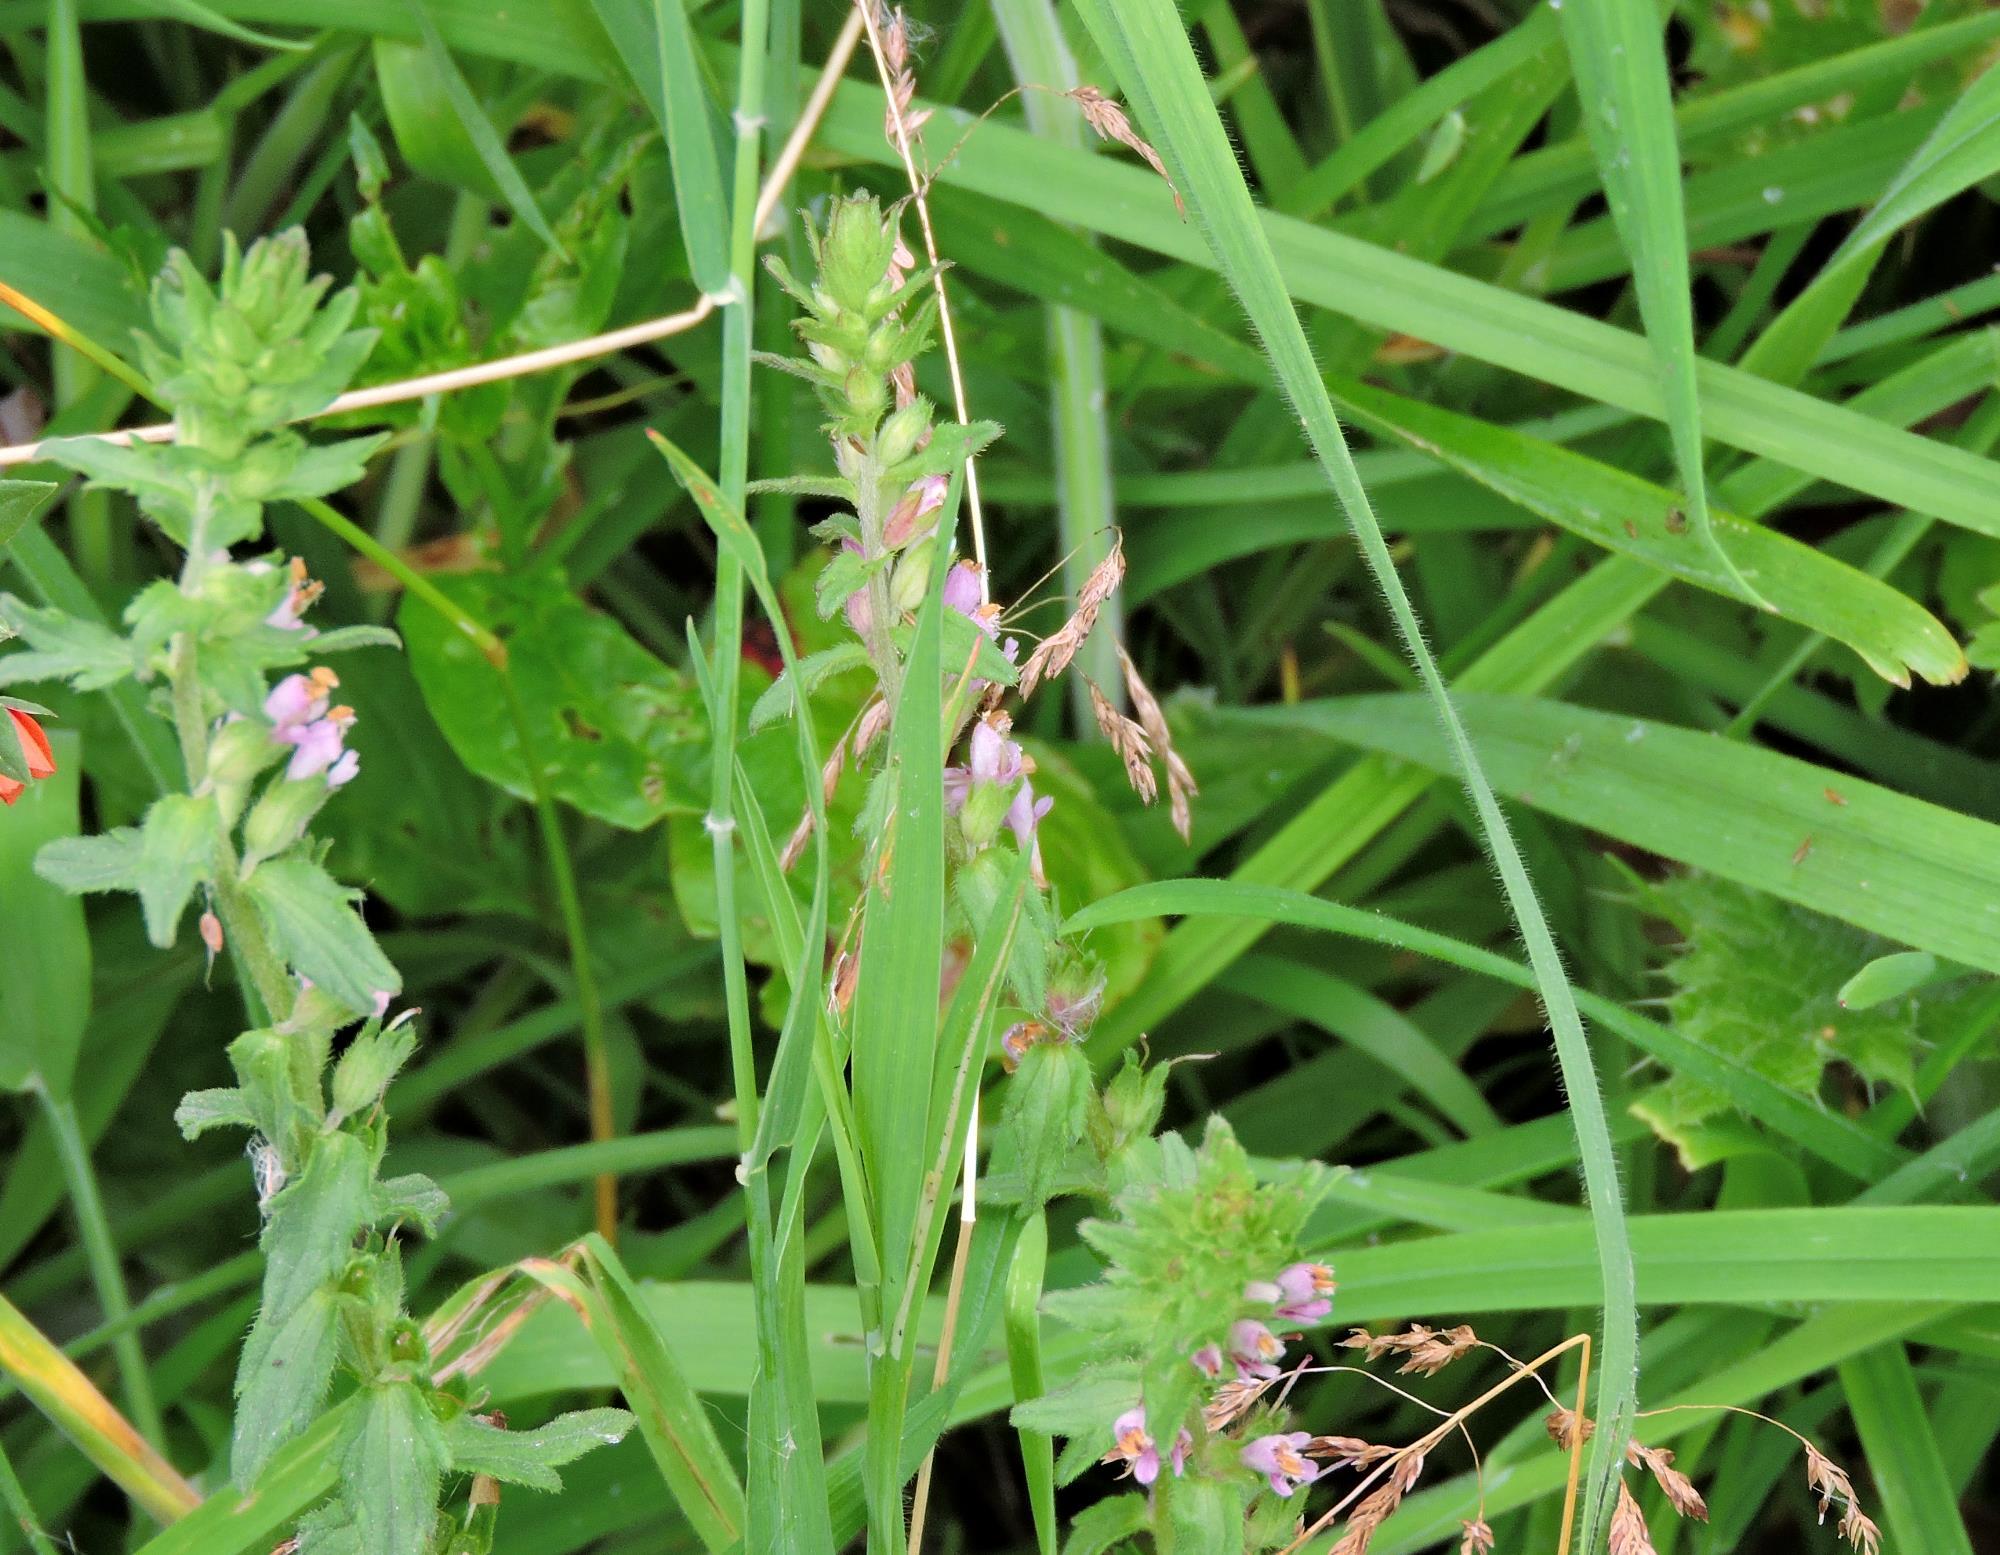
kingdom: Plantae
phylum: Tracheophyta
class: Magnoliopsida
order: Lamiales
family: Orobanchaceae
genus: Odontites
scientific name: Odontites vulgaris
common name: Broomrape
